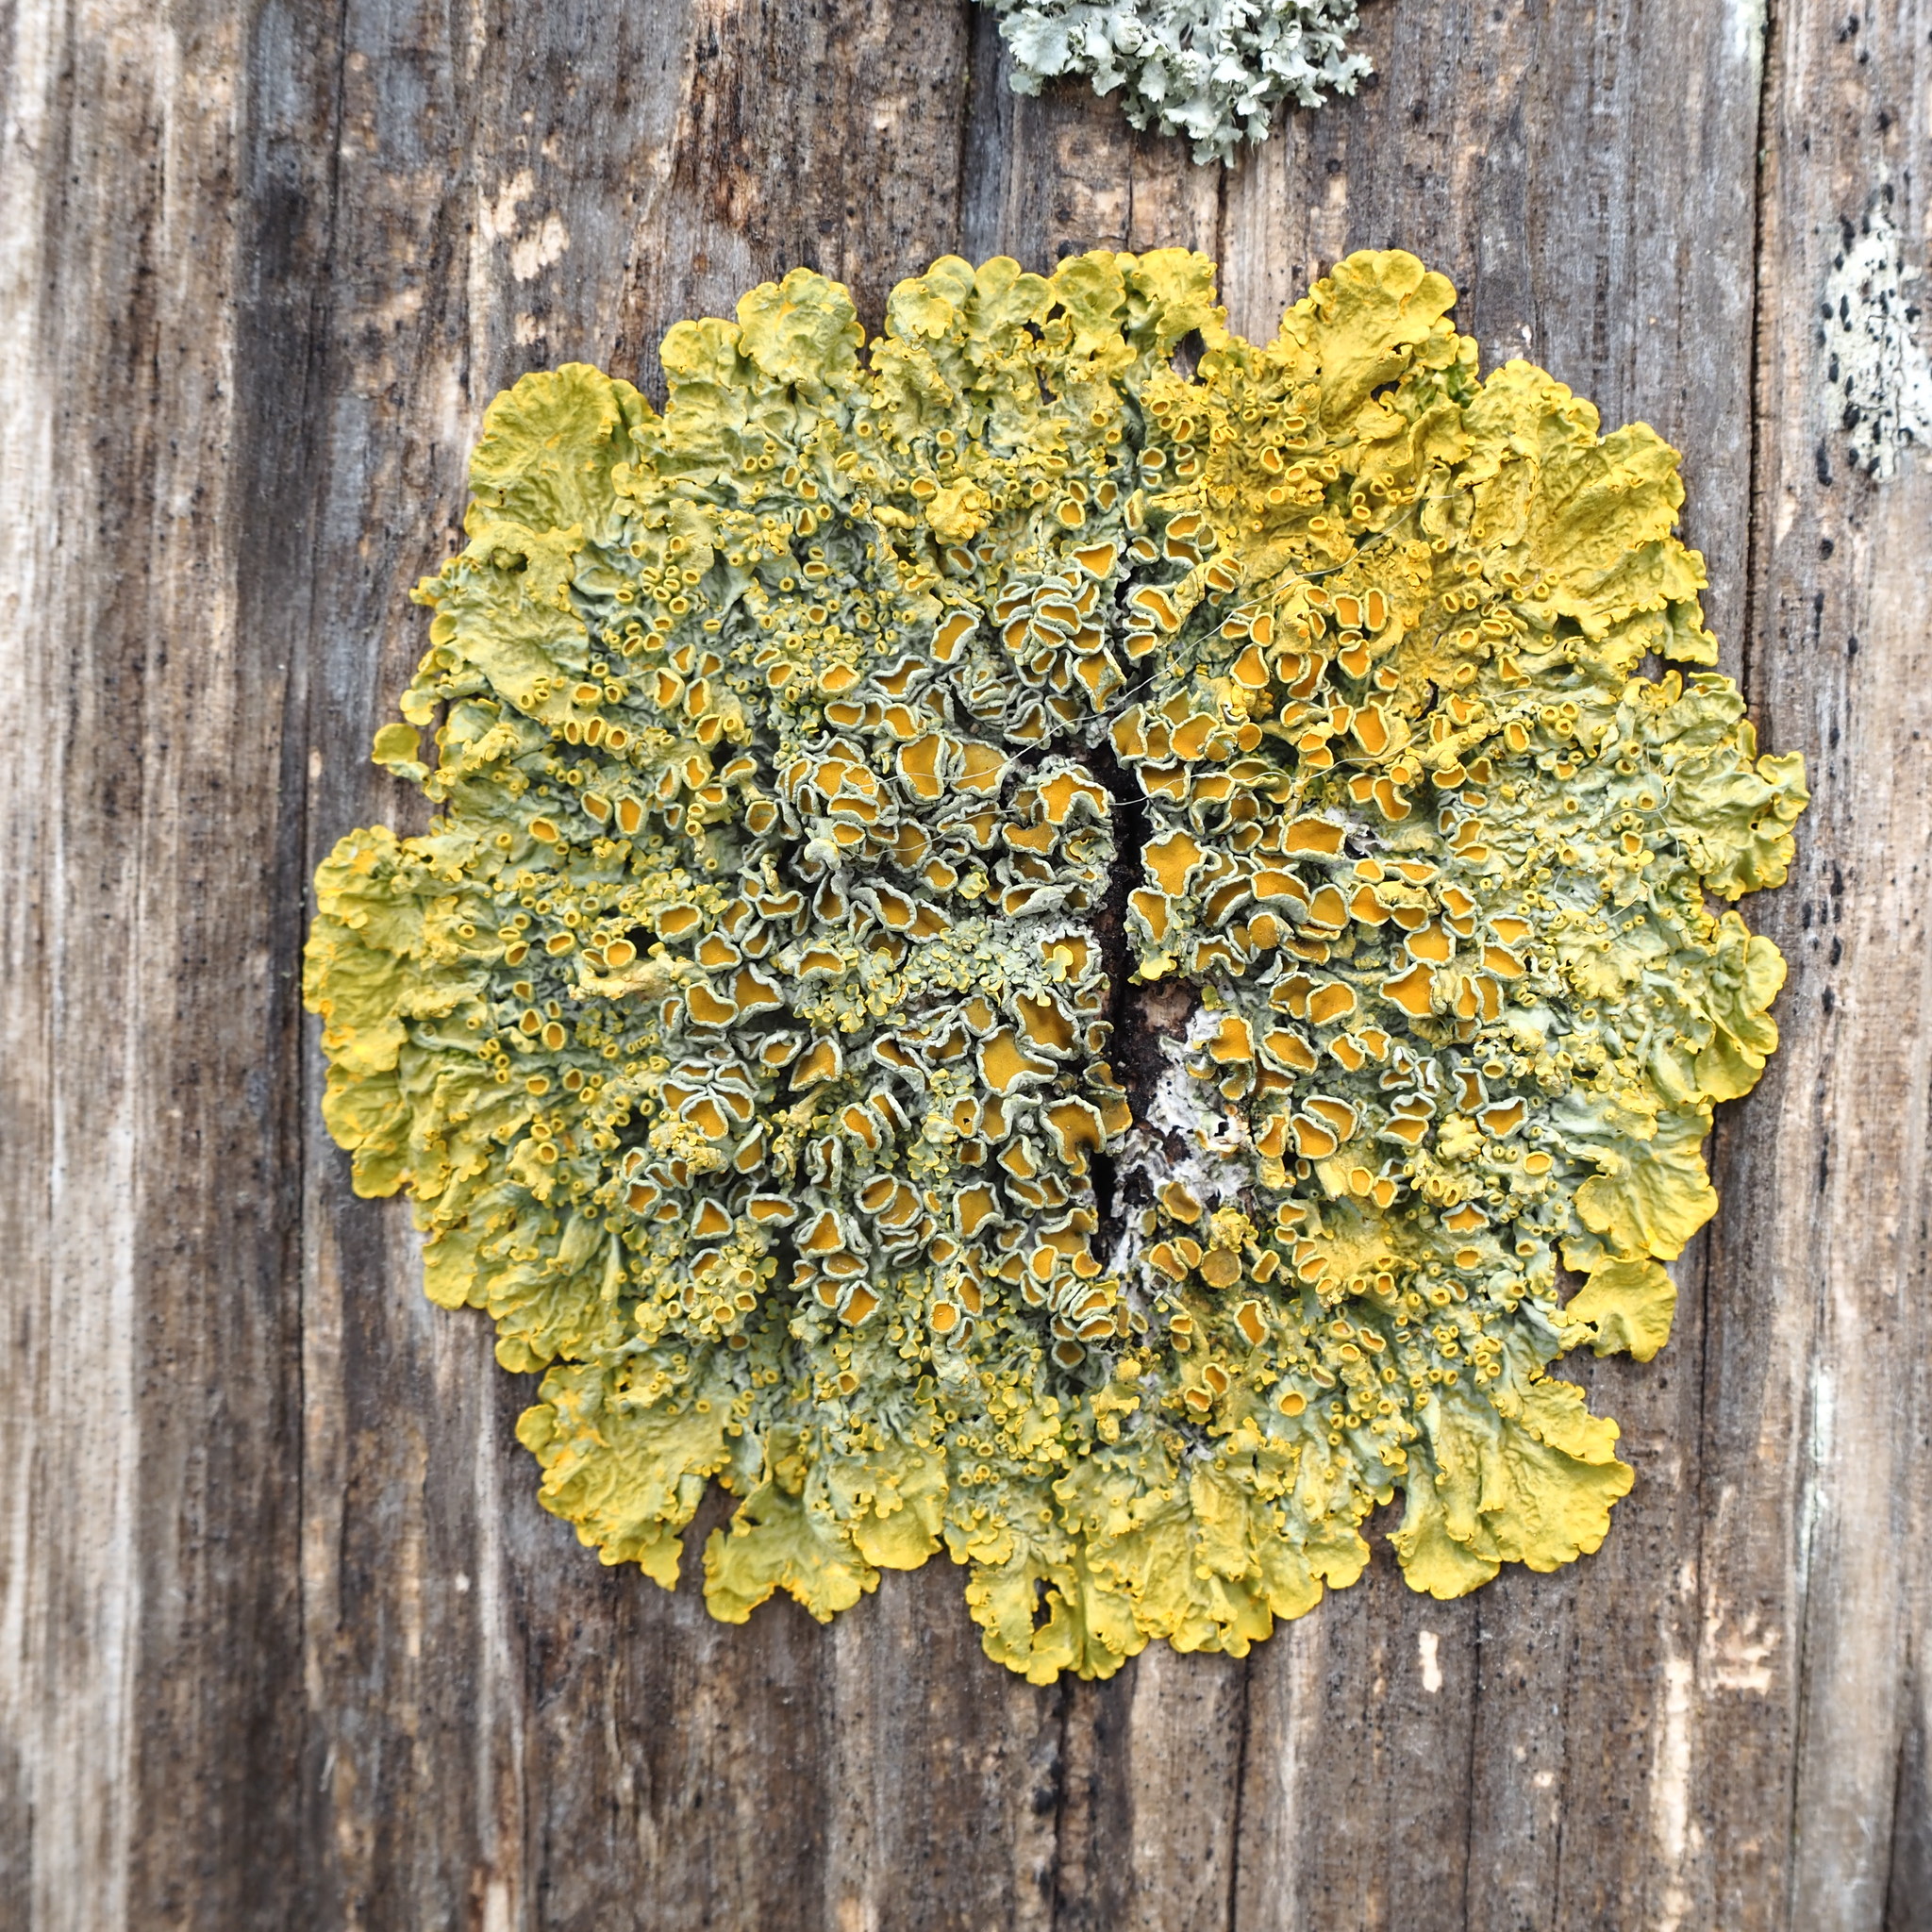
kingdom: Fungi
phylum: Ascomycota
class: Lecanoromycetes
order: Teloschistales
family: Teloschistaceae
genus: Xanthoria
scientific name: Xanthoria parietina
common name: Common orange lichen
